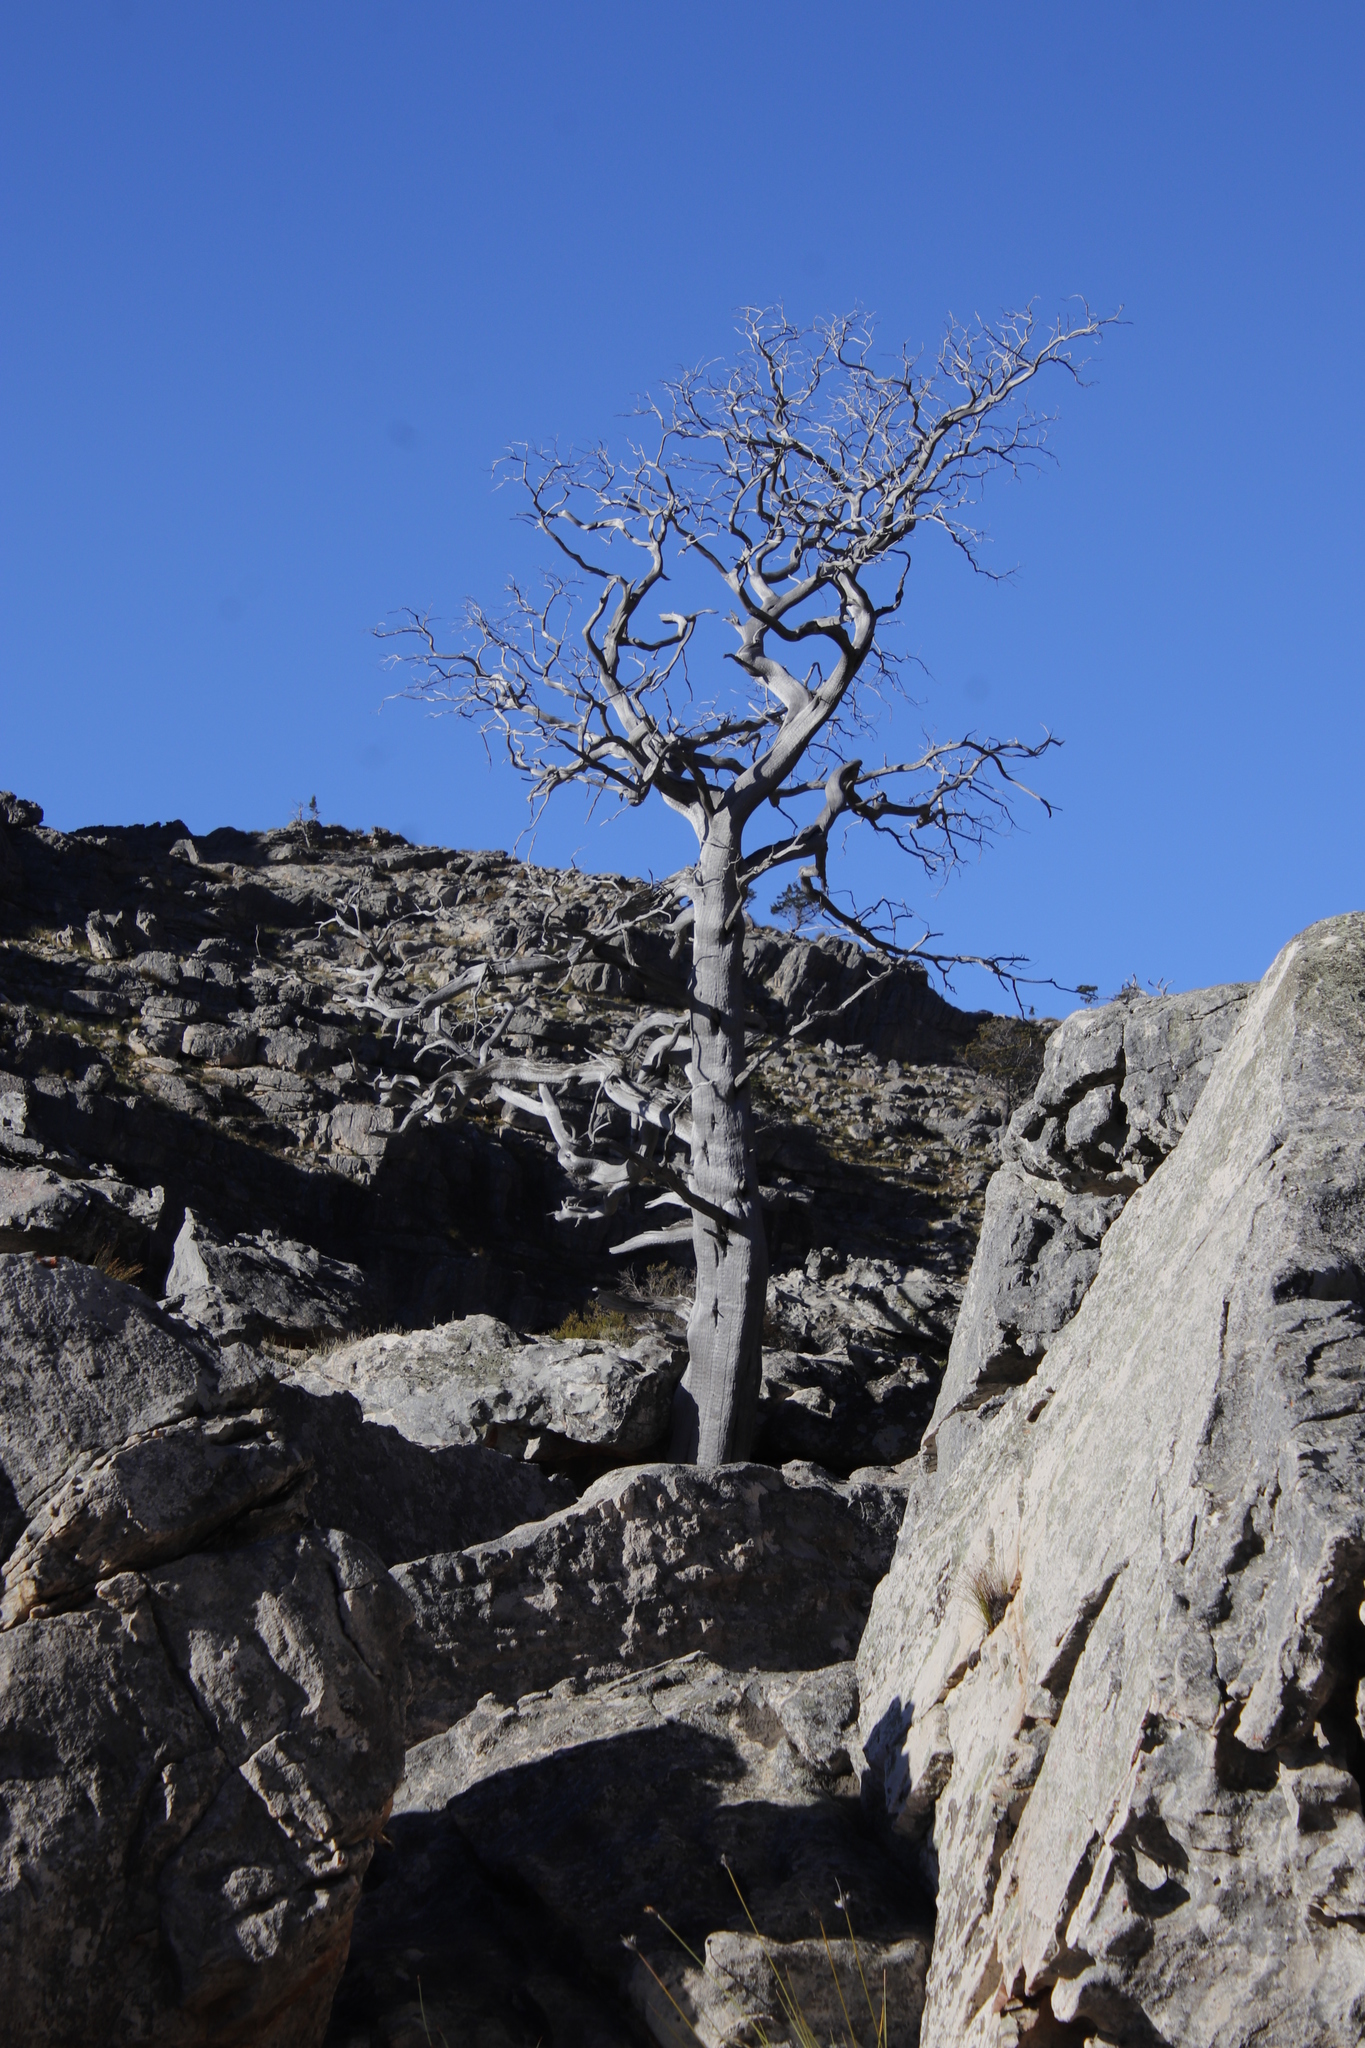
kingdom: Plantae
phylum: Tracheophyta
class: Pinopsida
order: Pinales
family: Cupressaceae
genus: Widdringtonia
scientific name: Widdringtonia nodiflora
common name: Cape cypress
